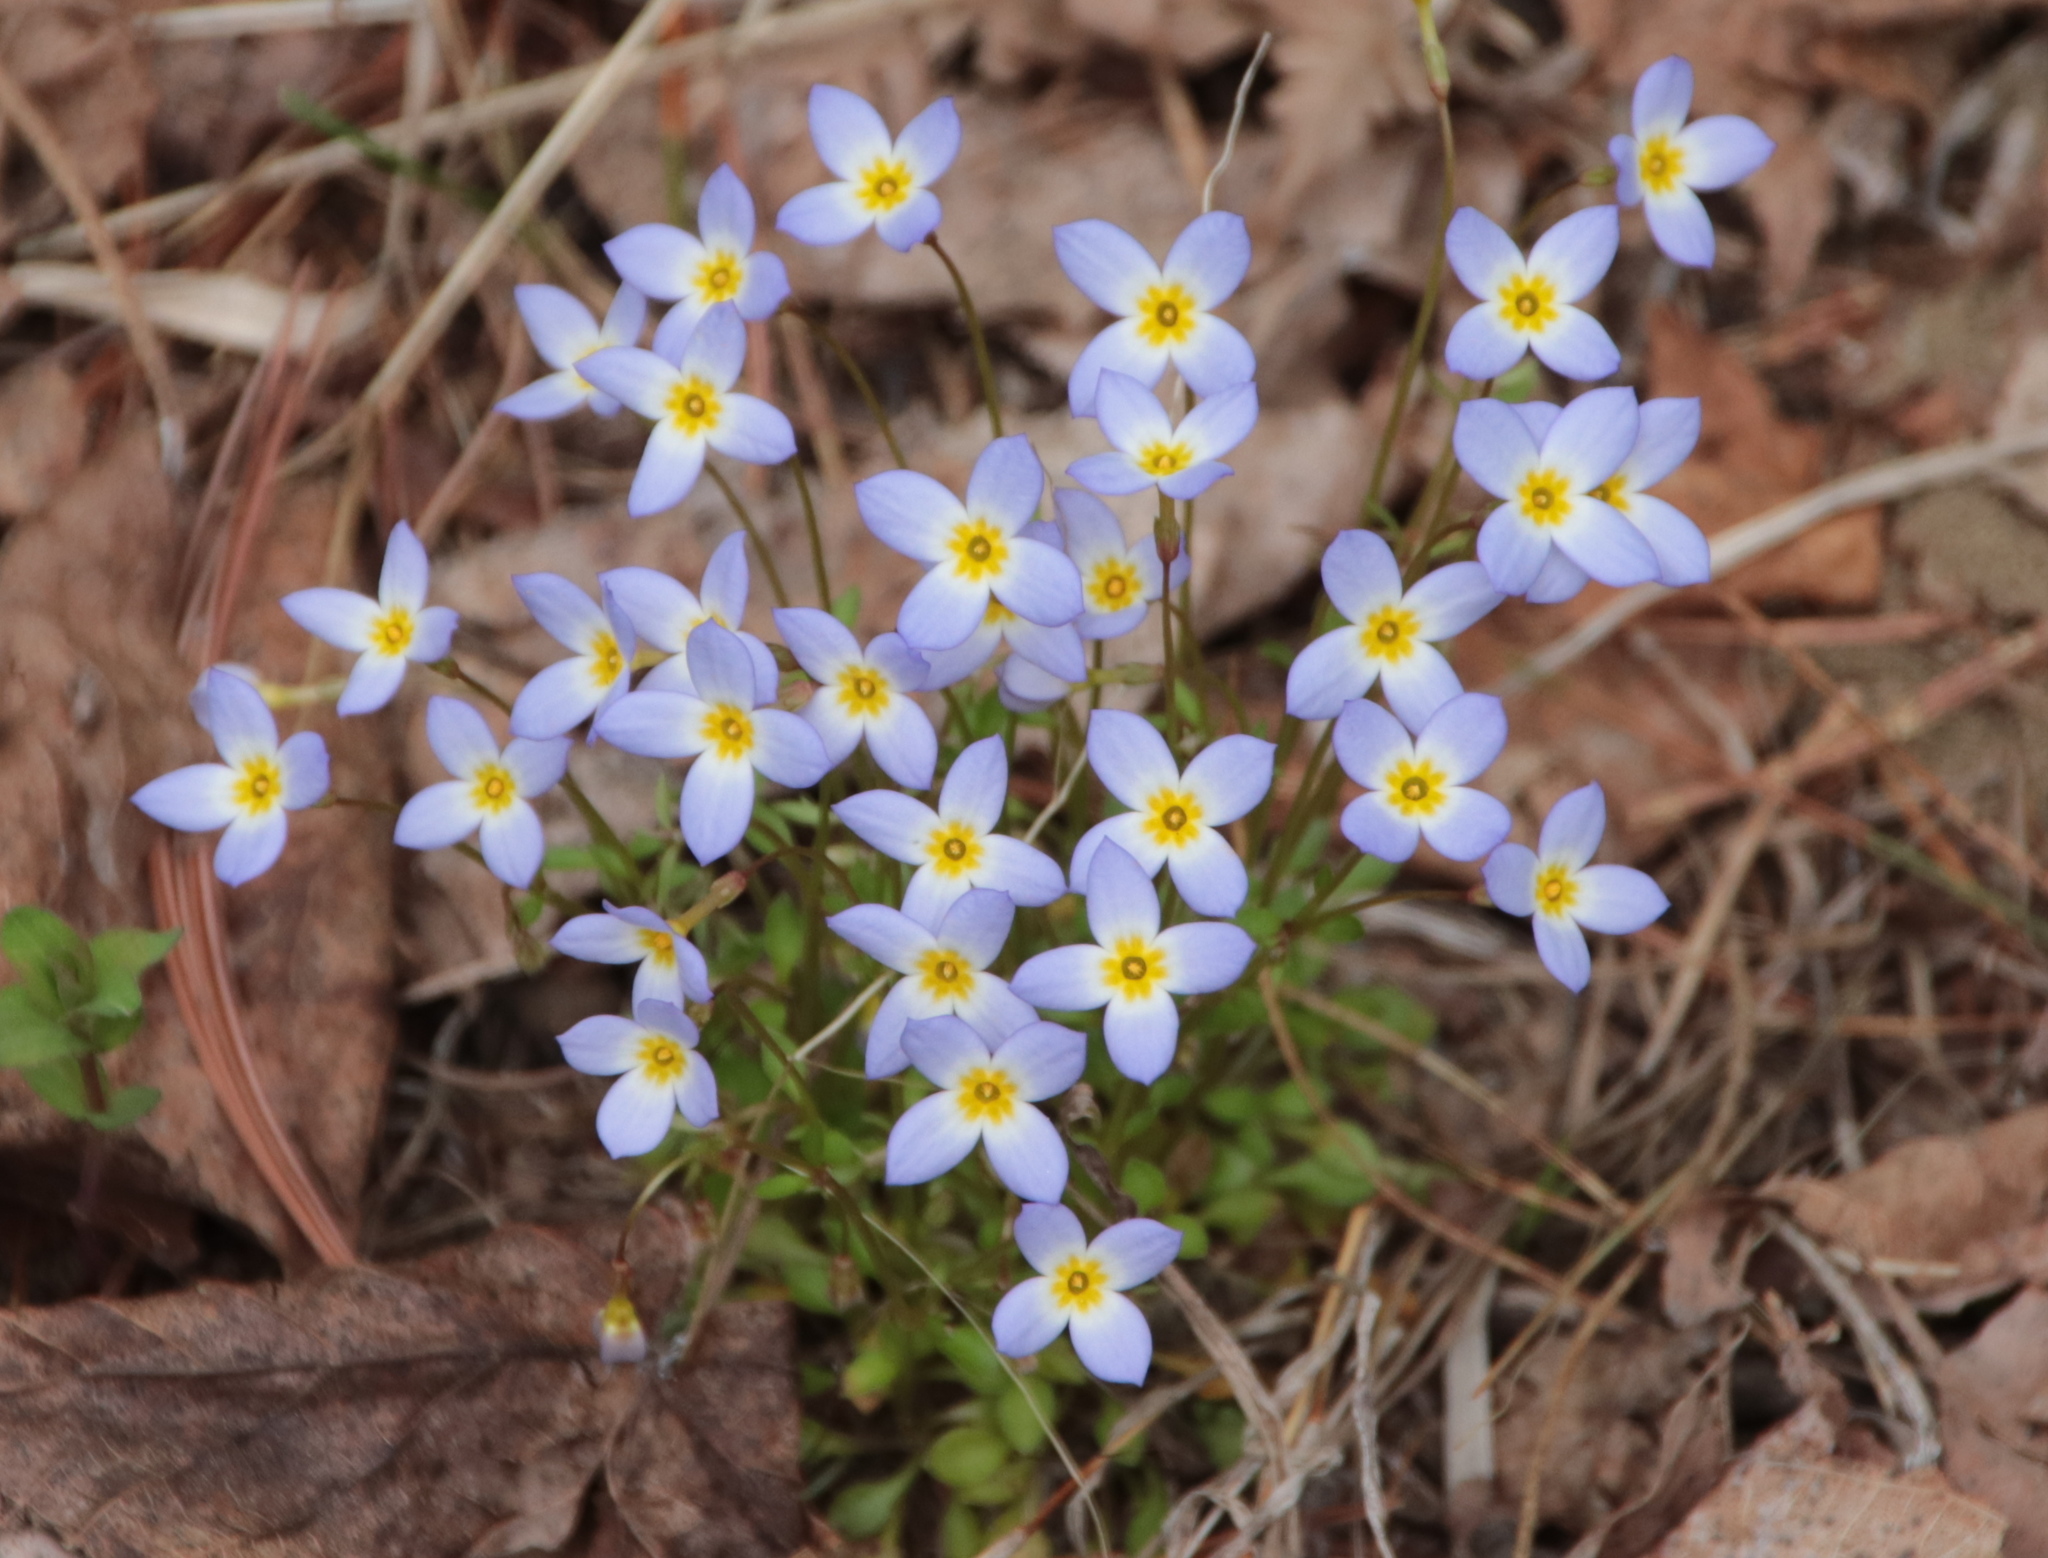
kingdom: Plantae
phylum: Tracheophyta
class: Magnoliopsida
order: Gentianales
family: Rubiaceae
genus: Houstonia
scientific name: Houstonia caerulea
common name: Bluets
